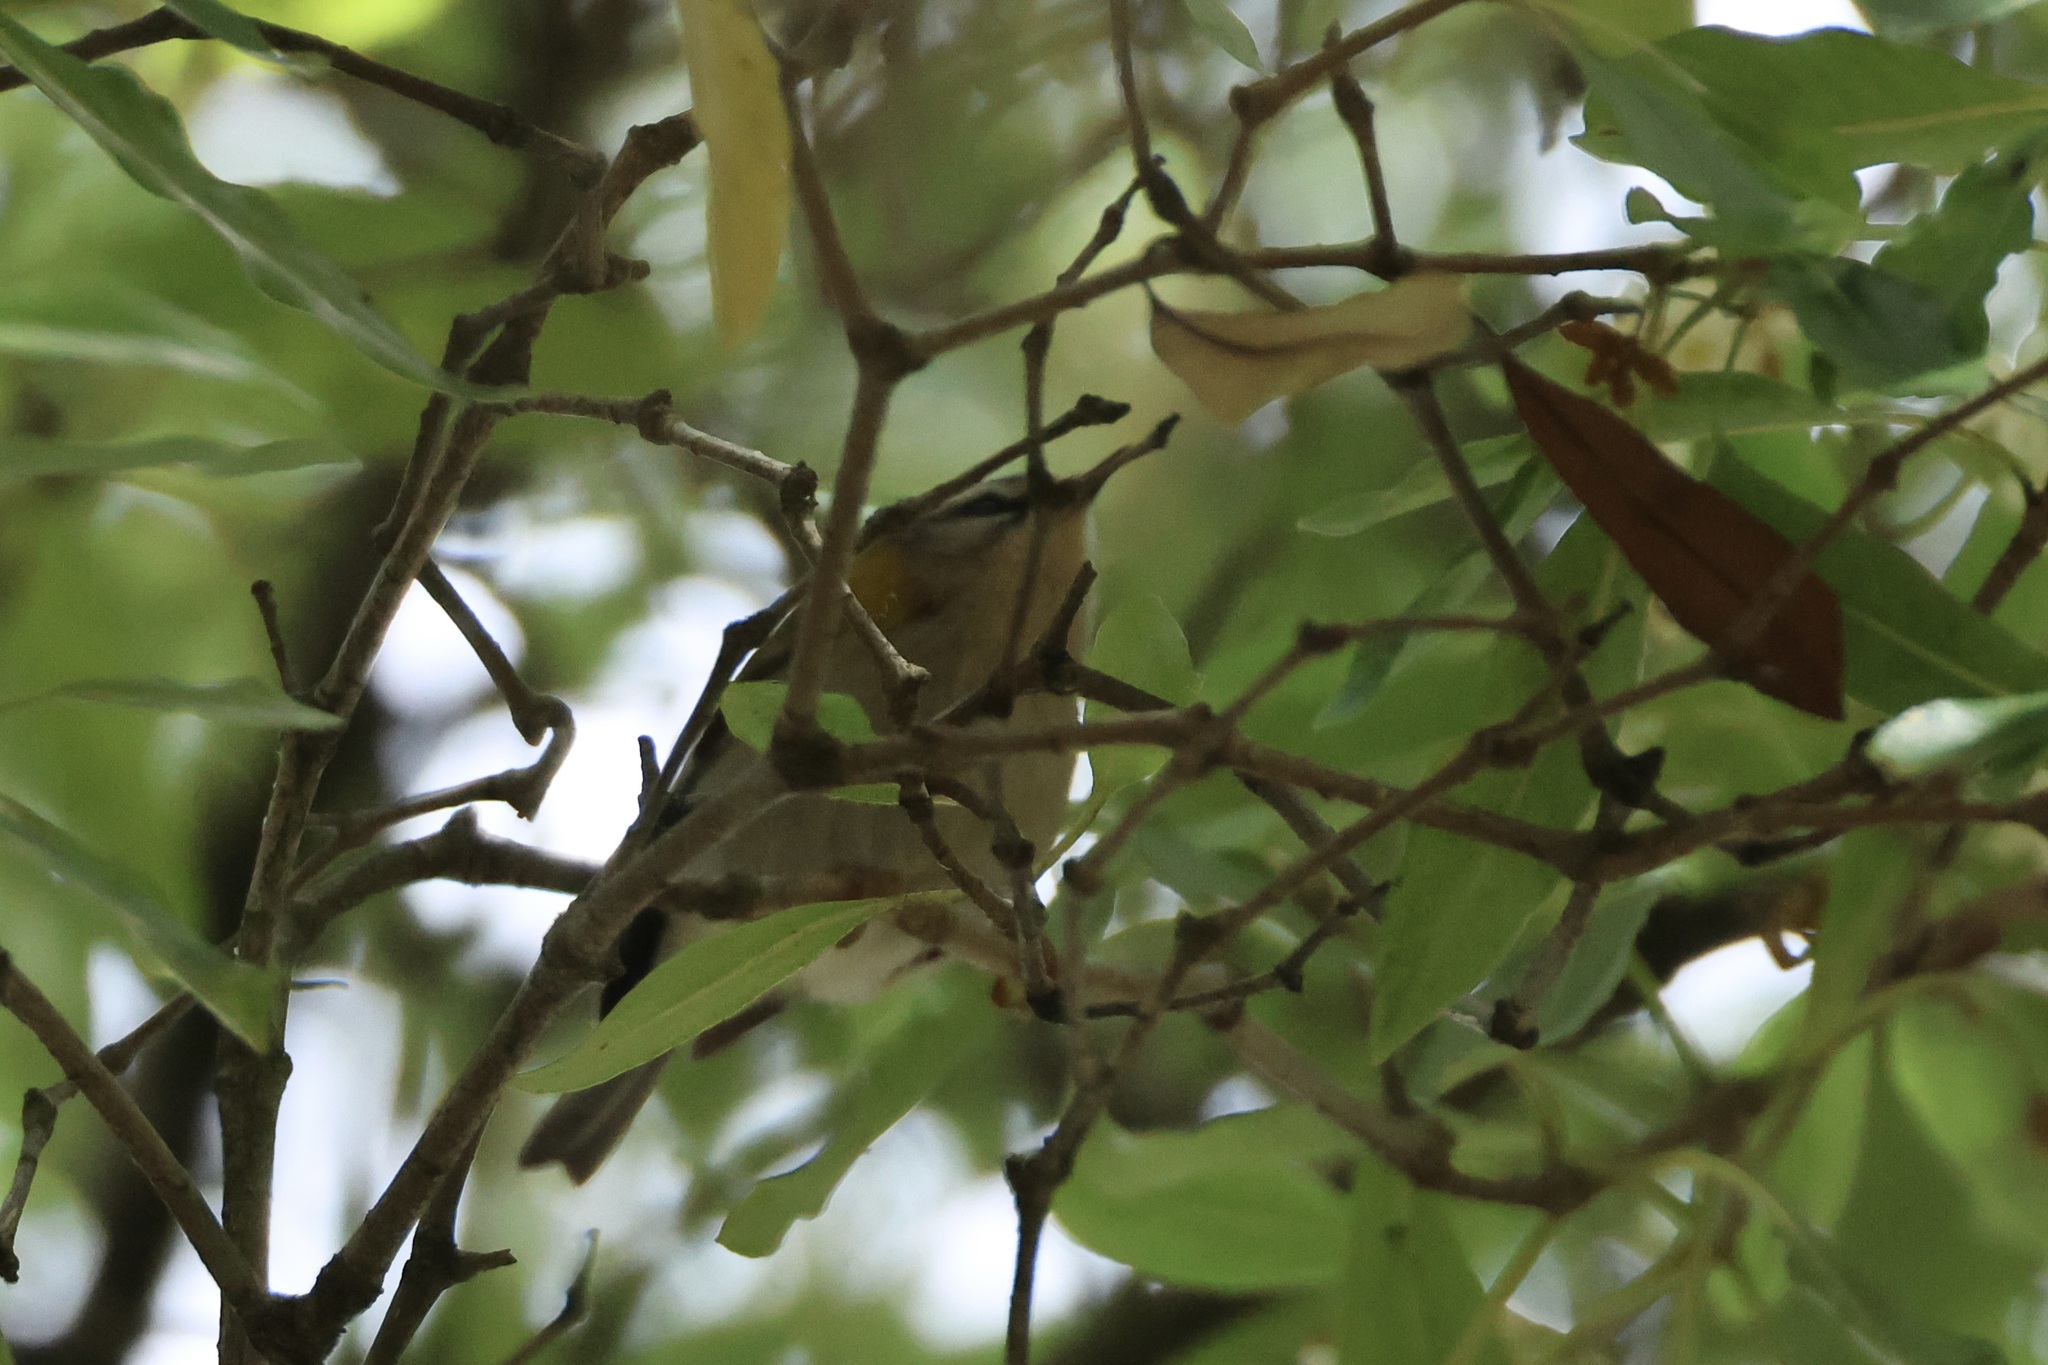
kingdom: Animalia
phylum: Chordata
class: Aves
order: Passeriformes
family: Regulidae
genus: Regulus
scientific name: Regulus ignicapilla
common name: Firecrest
